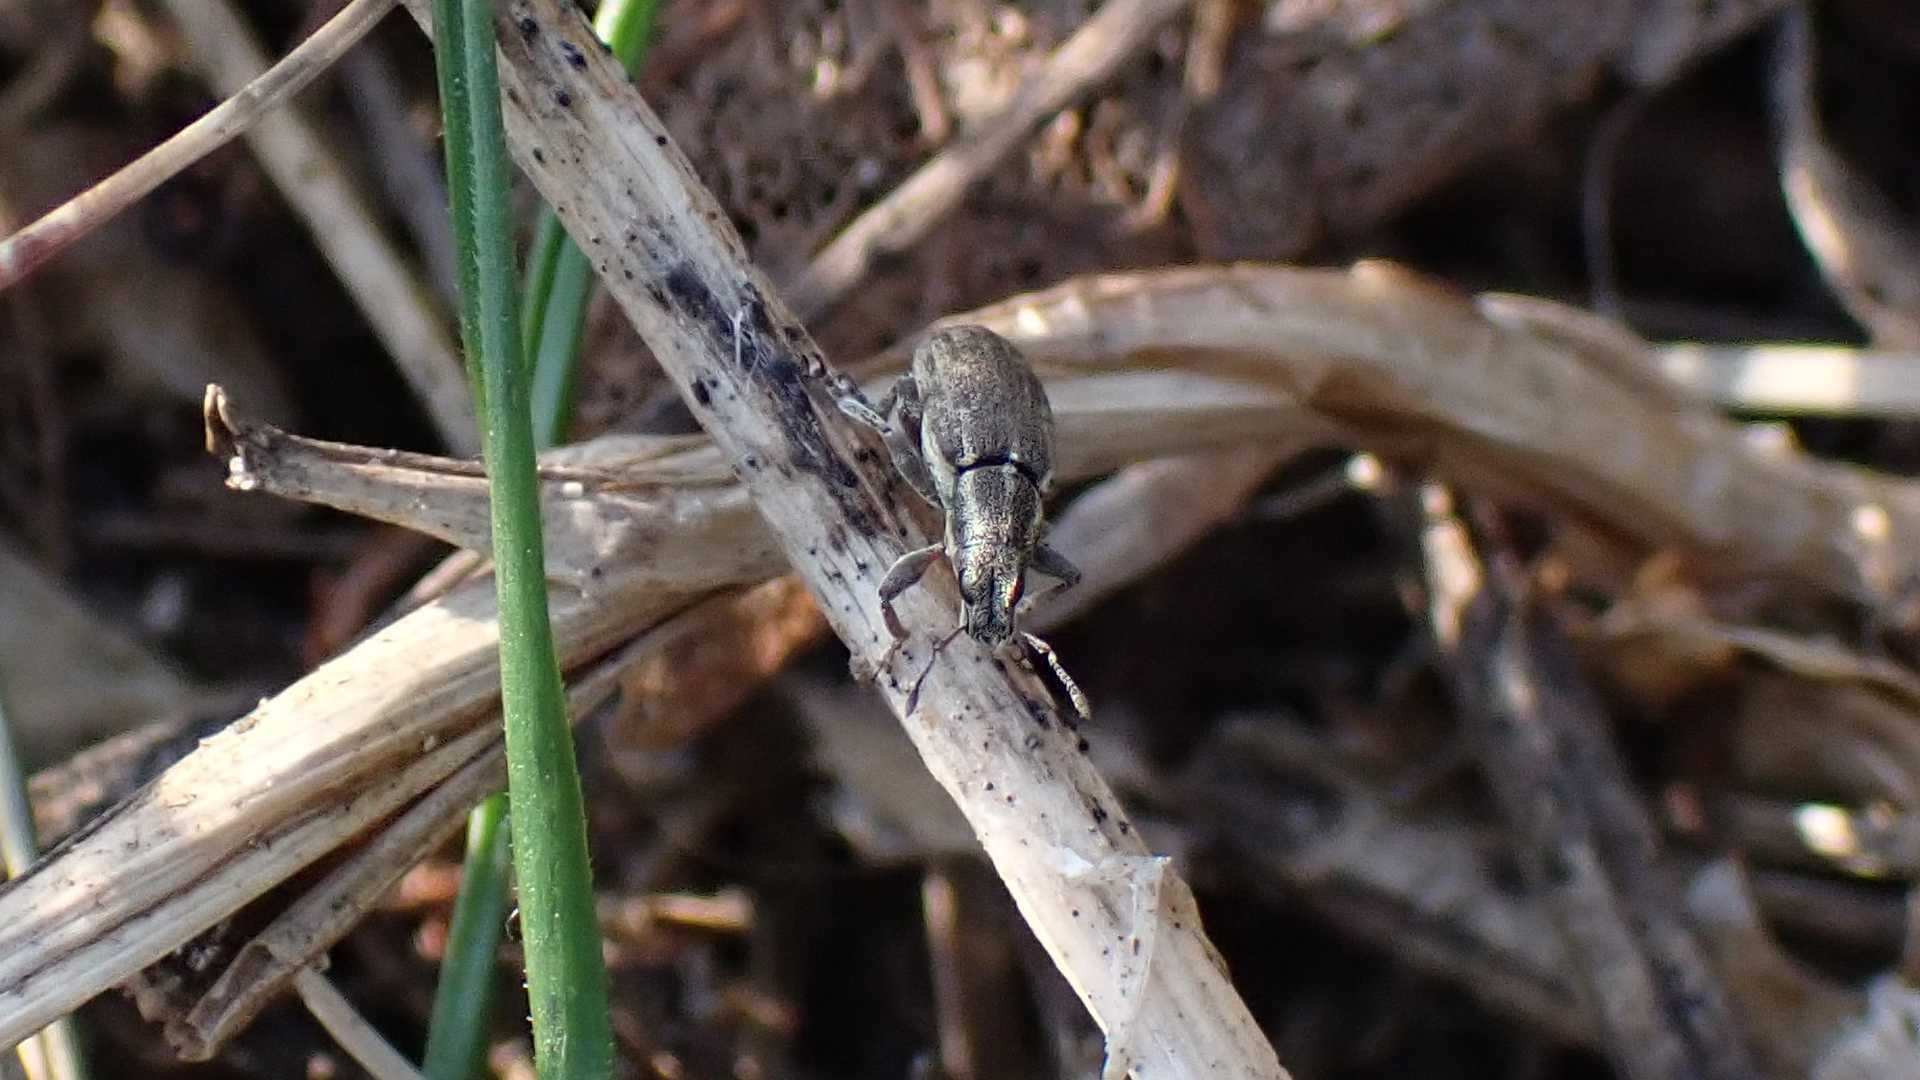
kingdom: Animalia
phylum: Arthropoda
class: Insecta
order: Coleoptera
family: Curculionidae
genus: Sitona
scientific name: Sitona humeralis
